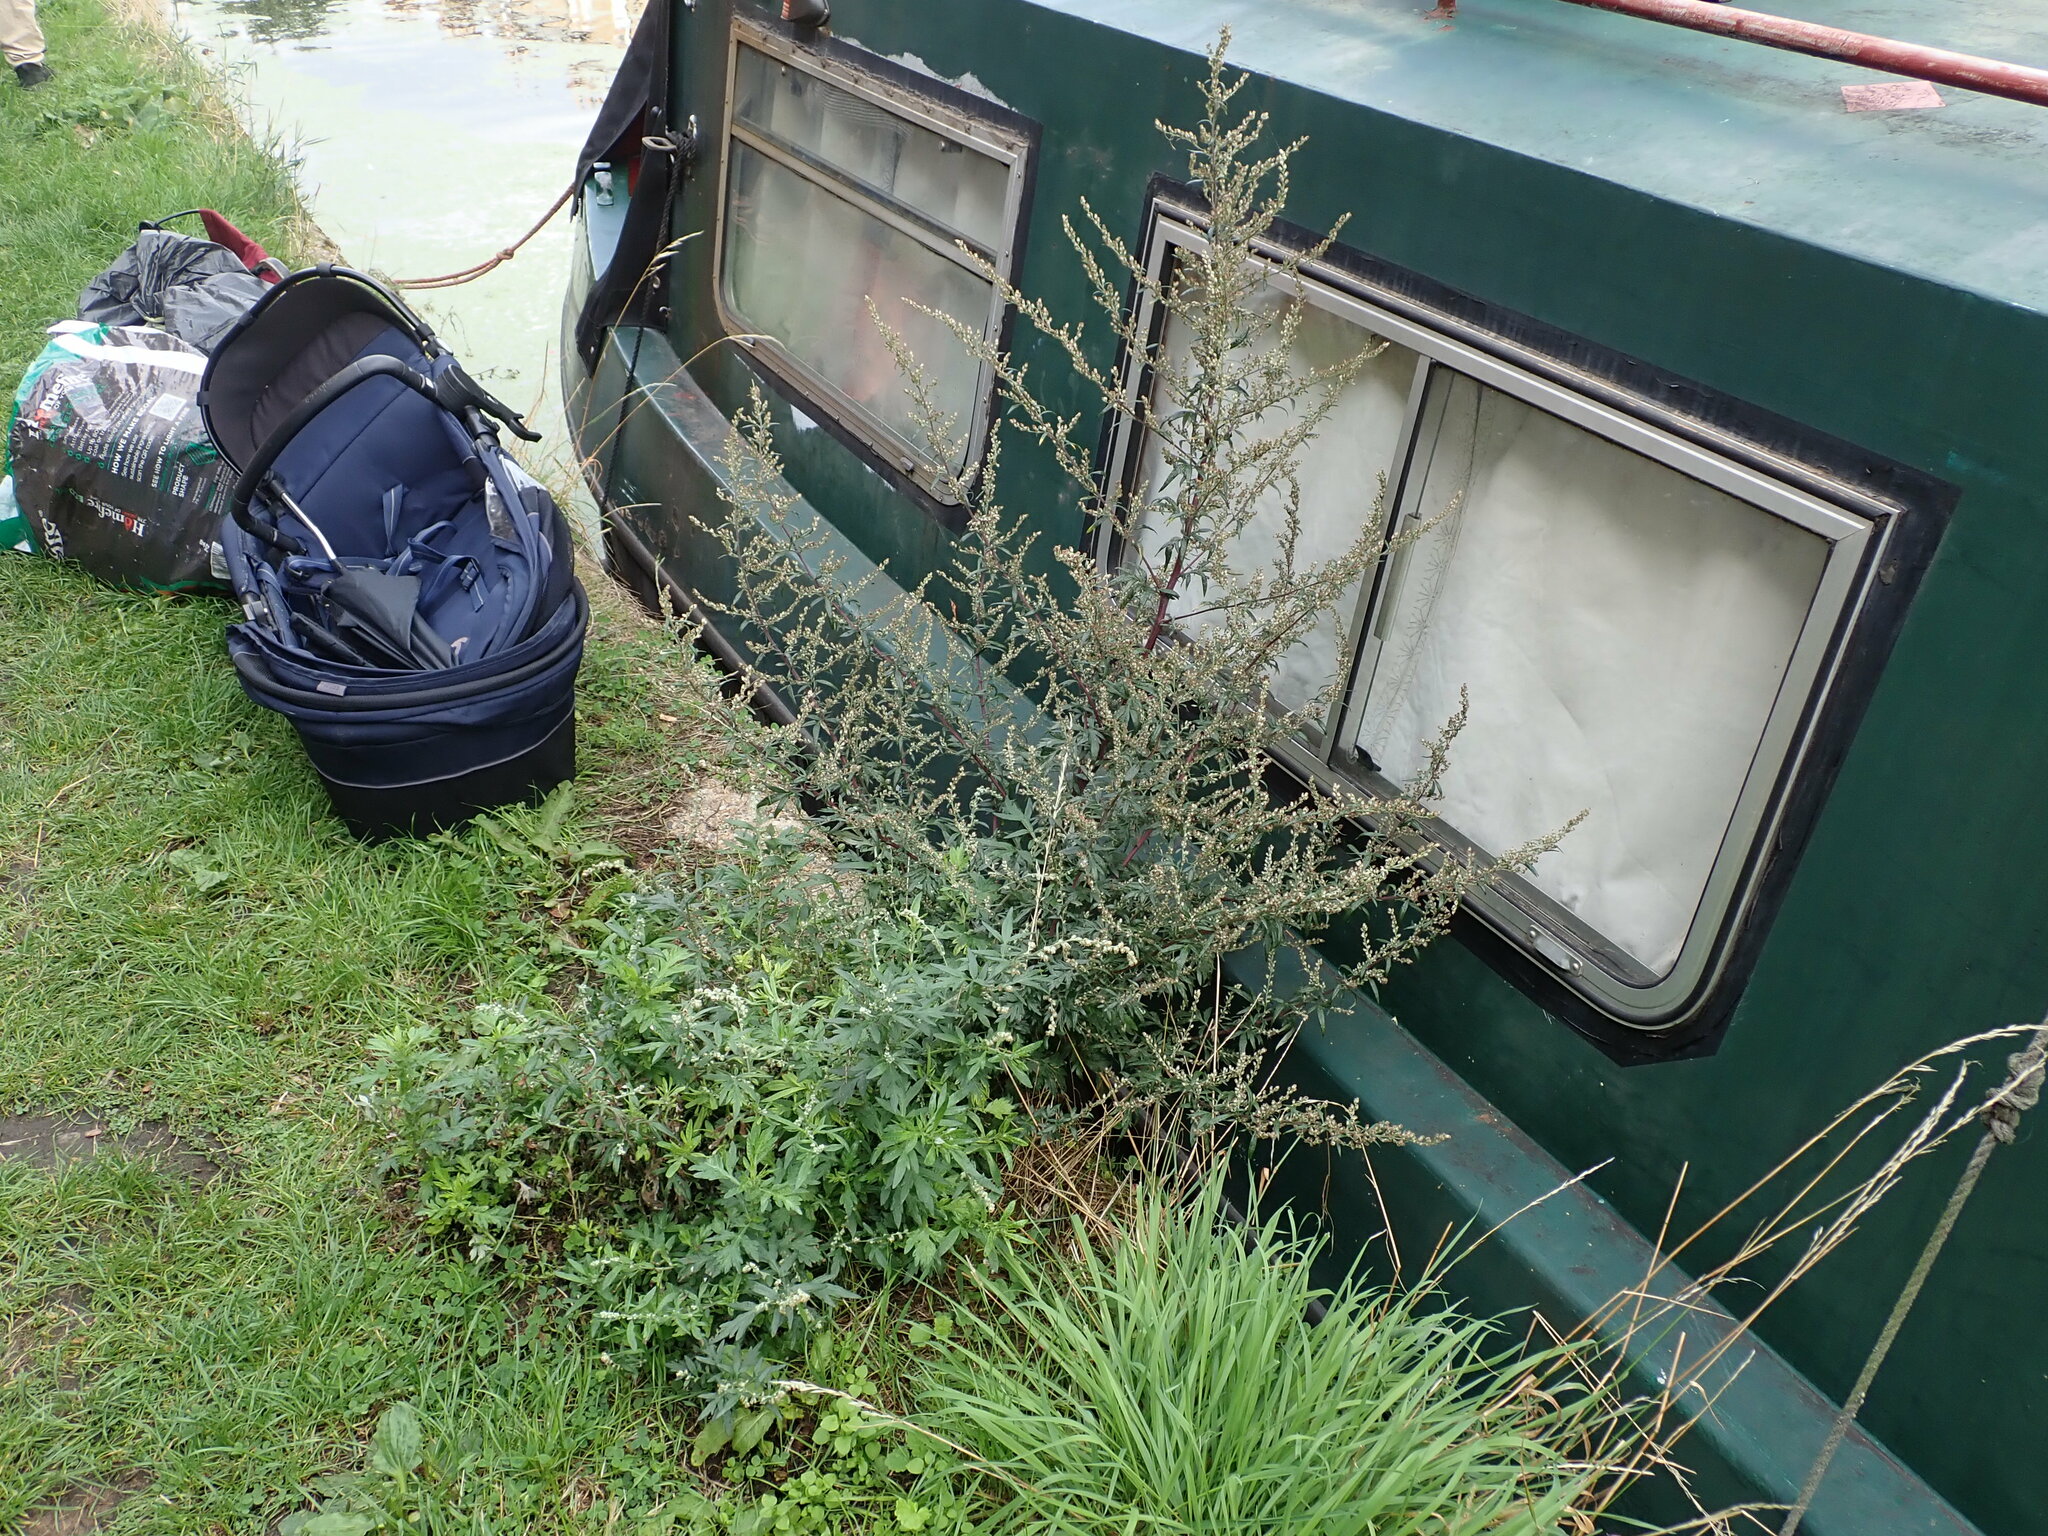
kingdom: Plantae
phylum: Tracheophyta
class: Magnoliopsida
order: Asterales
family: Asteraceae
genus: Artemisia
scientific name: Artemisia vulgaris
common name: Mugwort
